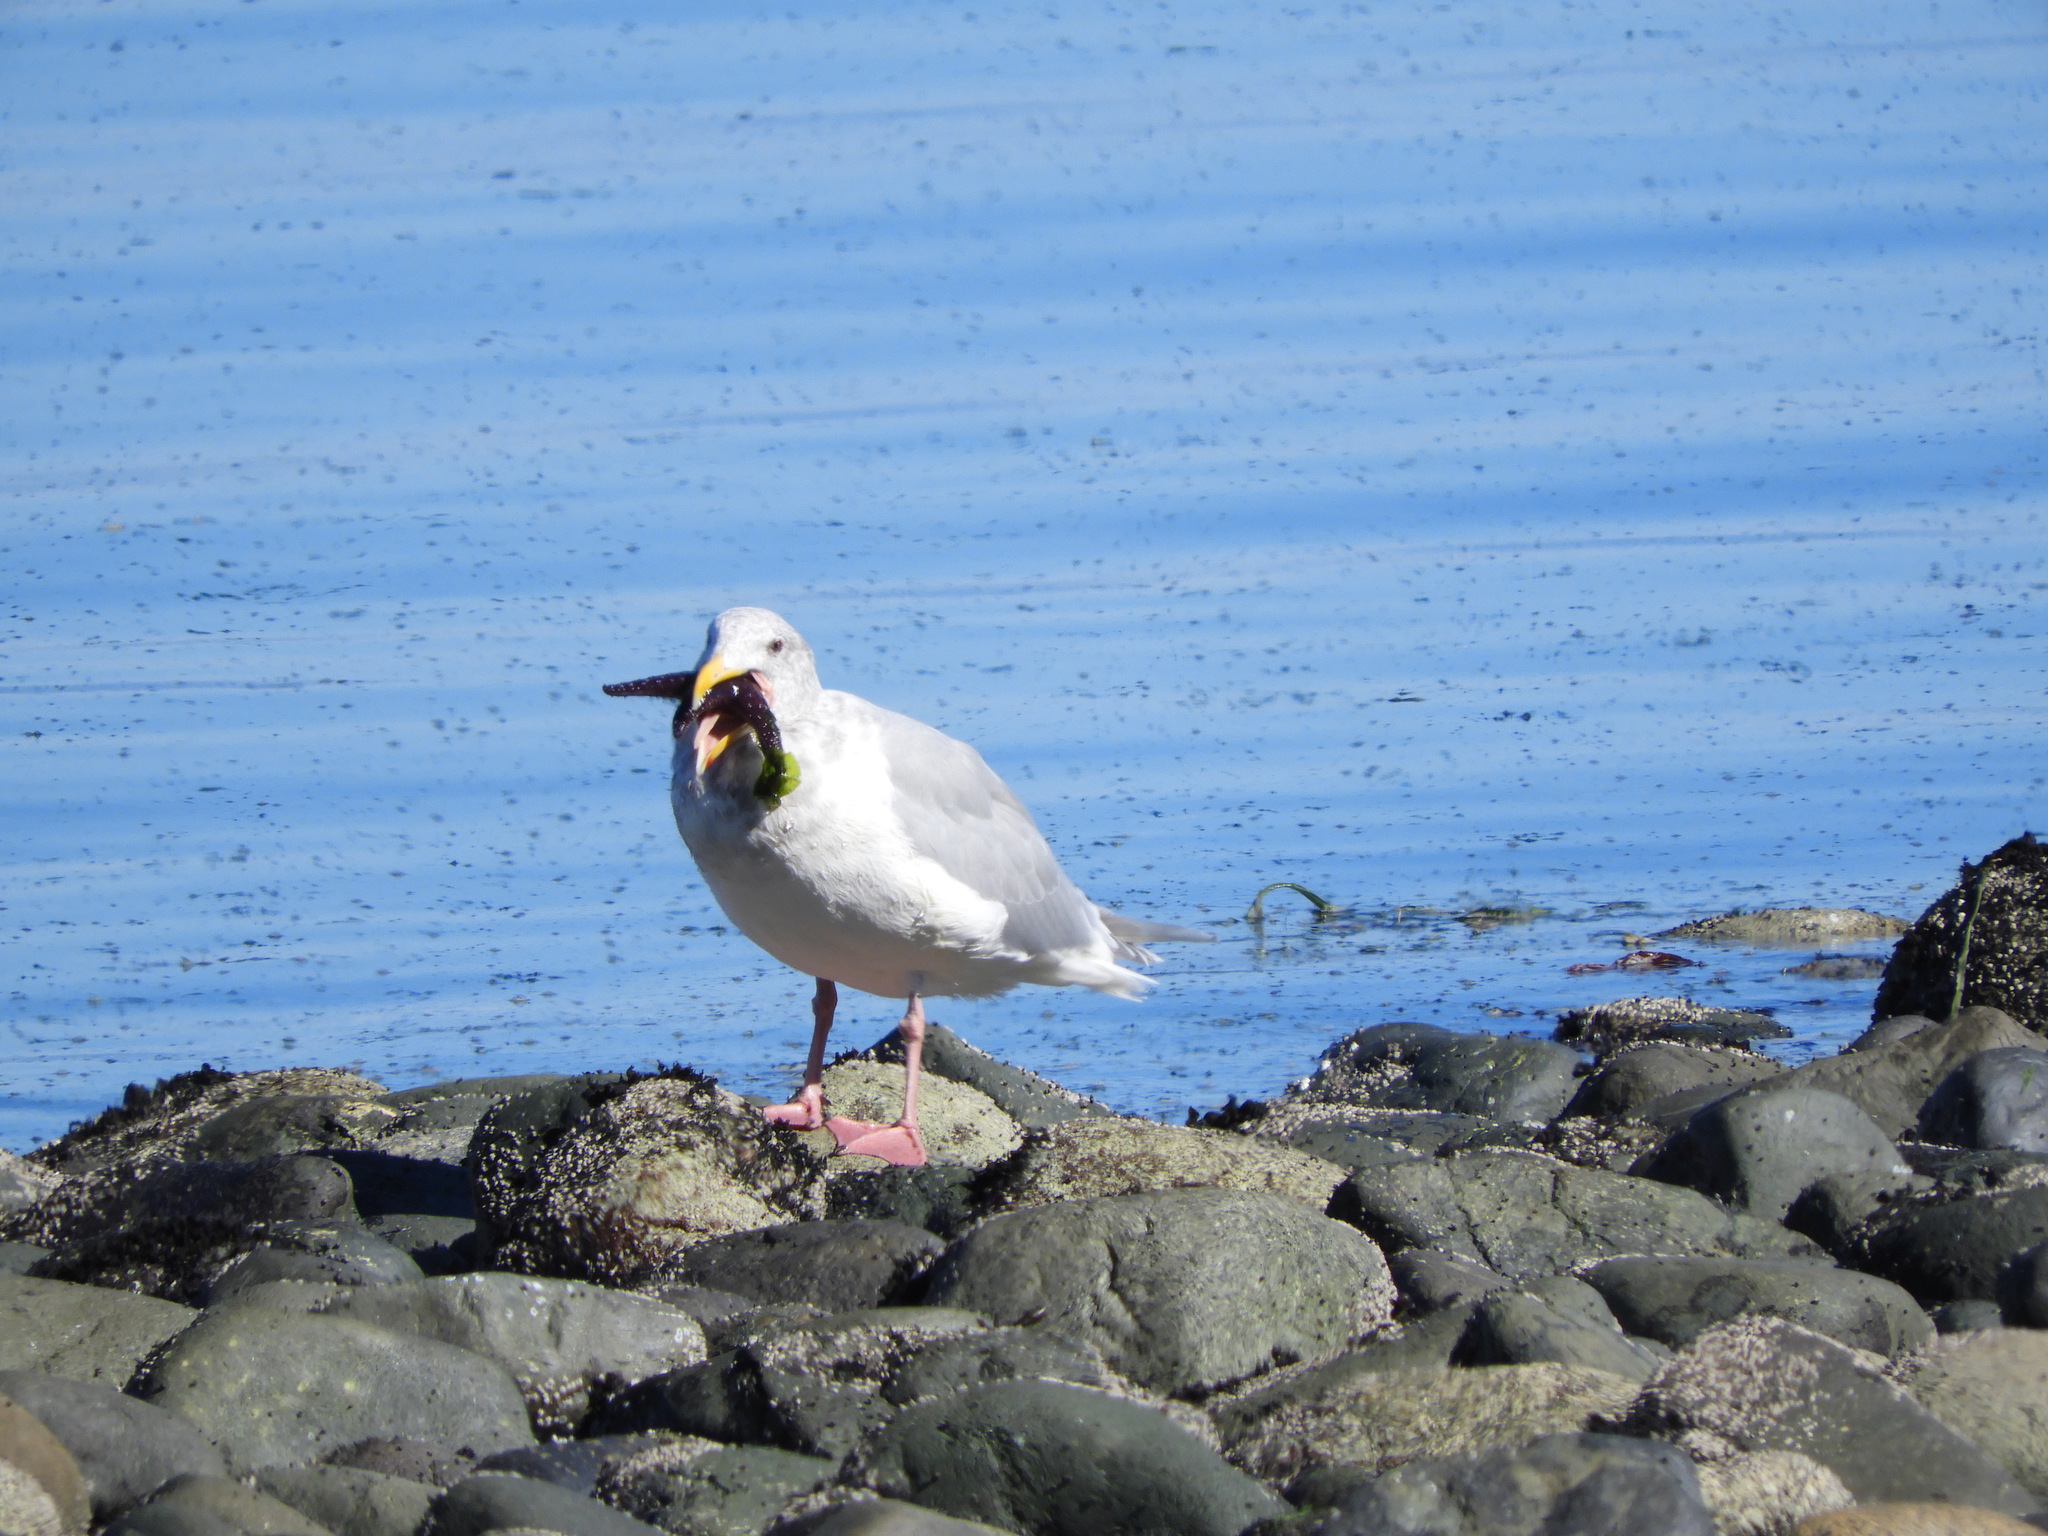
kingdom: Animalia
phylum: Chordata
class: Aves
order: Charadriiformes
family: Laridae
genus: Larus
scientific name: Larus glaucescens
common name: Glaucous-winged gull
